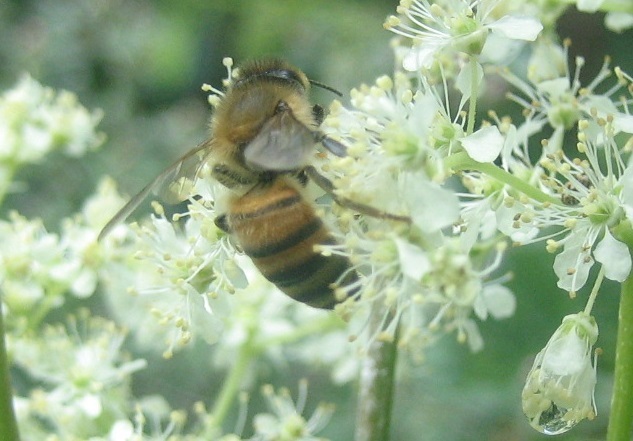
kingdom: Animalia
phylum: Arthropoda
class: Insecta
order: Hymenoptera
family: Apidae
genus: Apis
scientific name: Apis mellifera
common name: Honey bee
